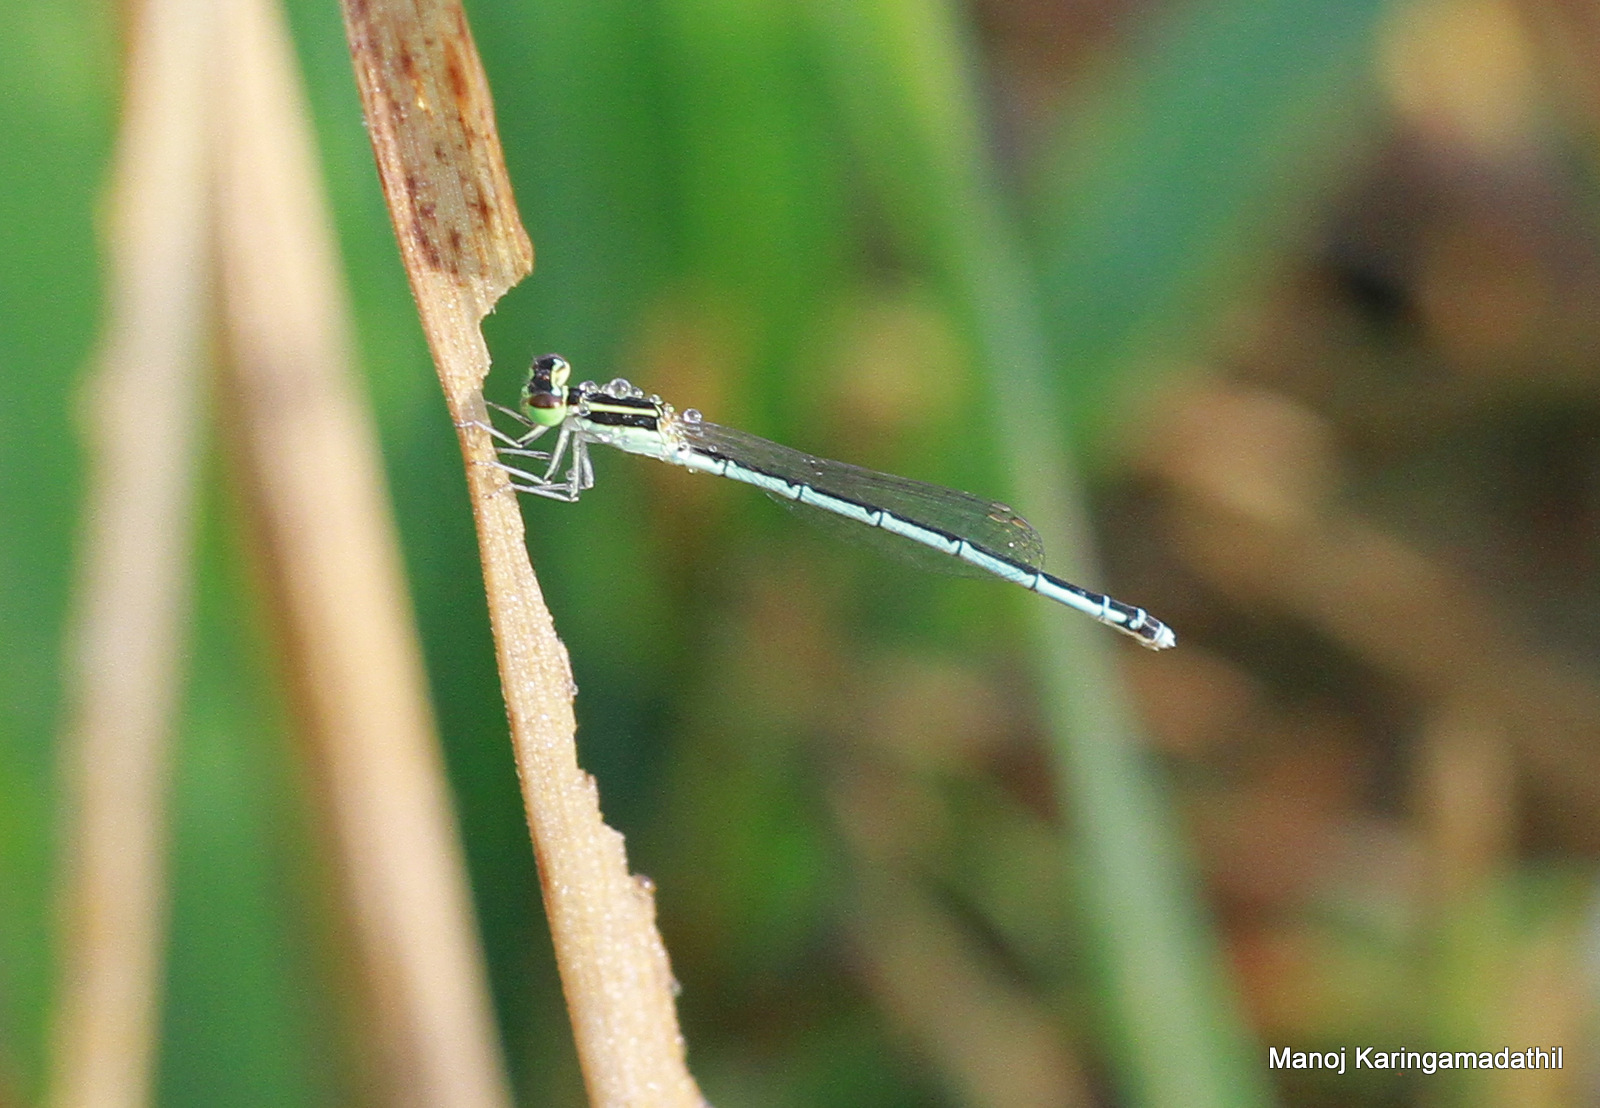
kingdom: Animalia
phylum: Arthropoda
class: Insecta
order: Odonata
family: Coenagrionidae
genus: Agriocnemis
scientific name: Agriocnemis pieris
